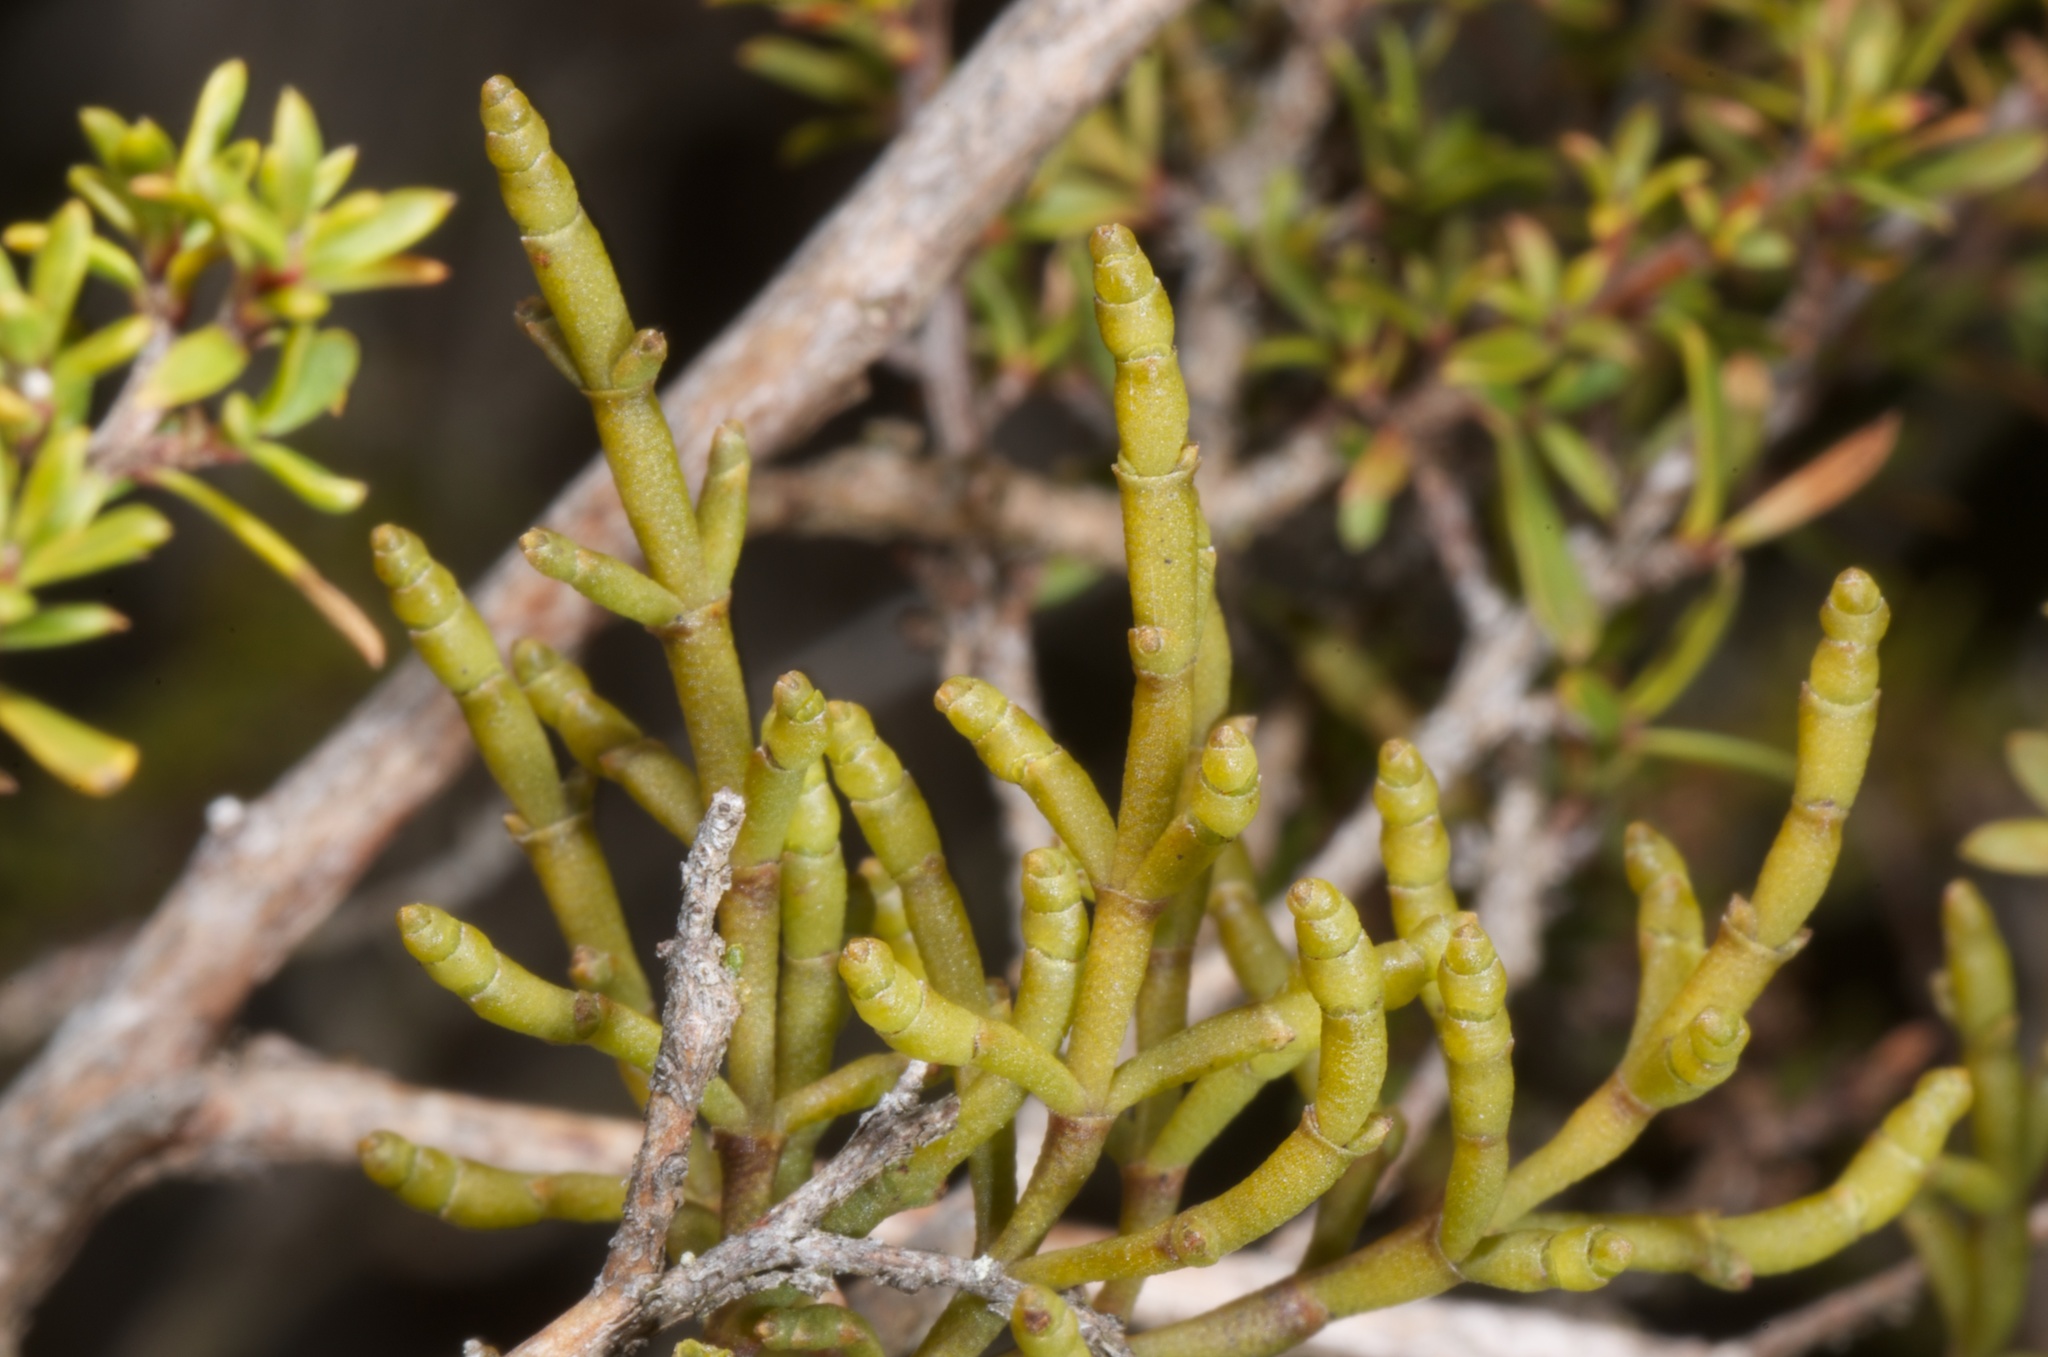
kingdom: Plantae
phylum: Tracheophyta
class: Magnoliopsida
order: Santalales
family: Viscaceae
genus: Korthalsella
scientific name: Korthalsella salicornioides
